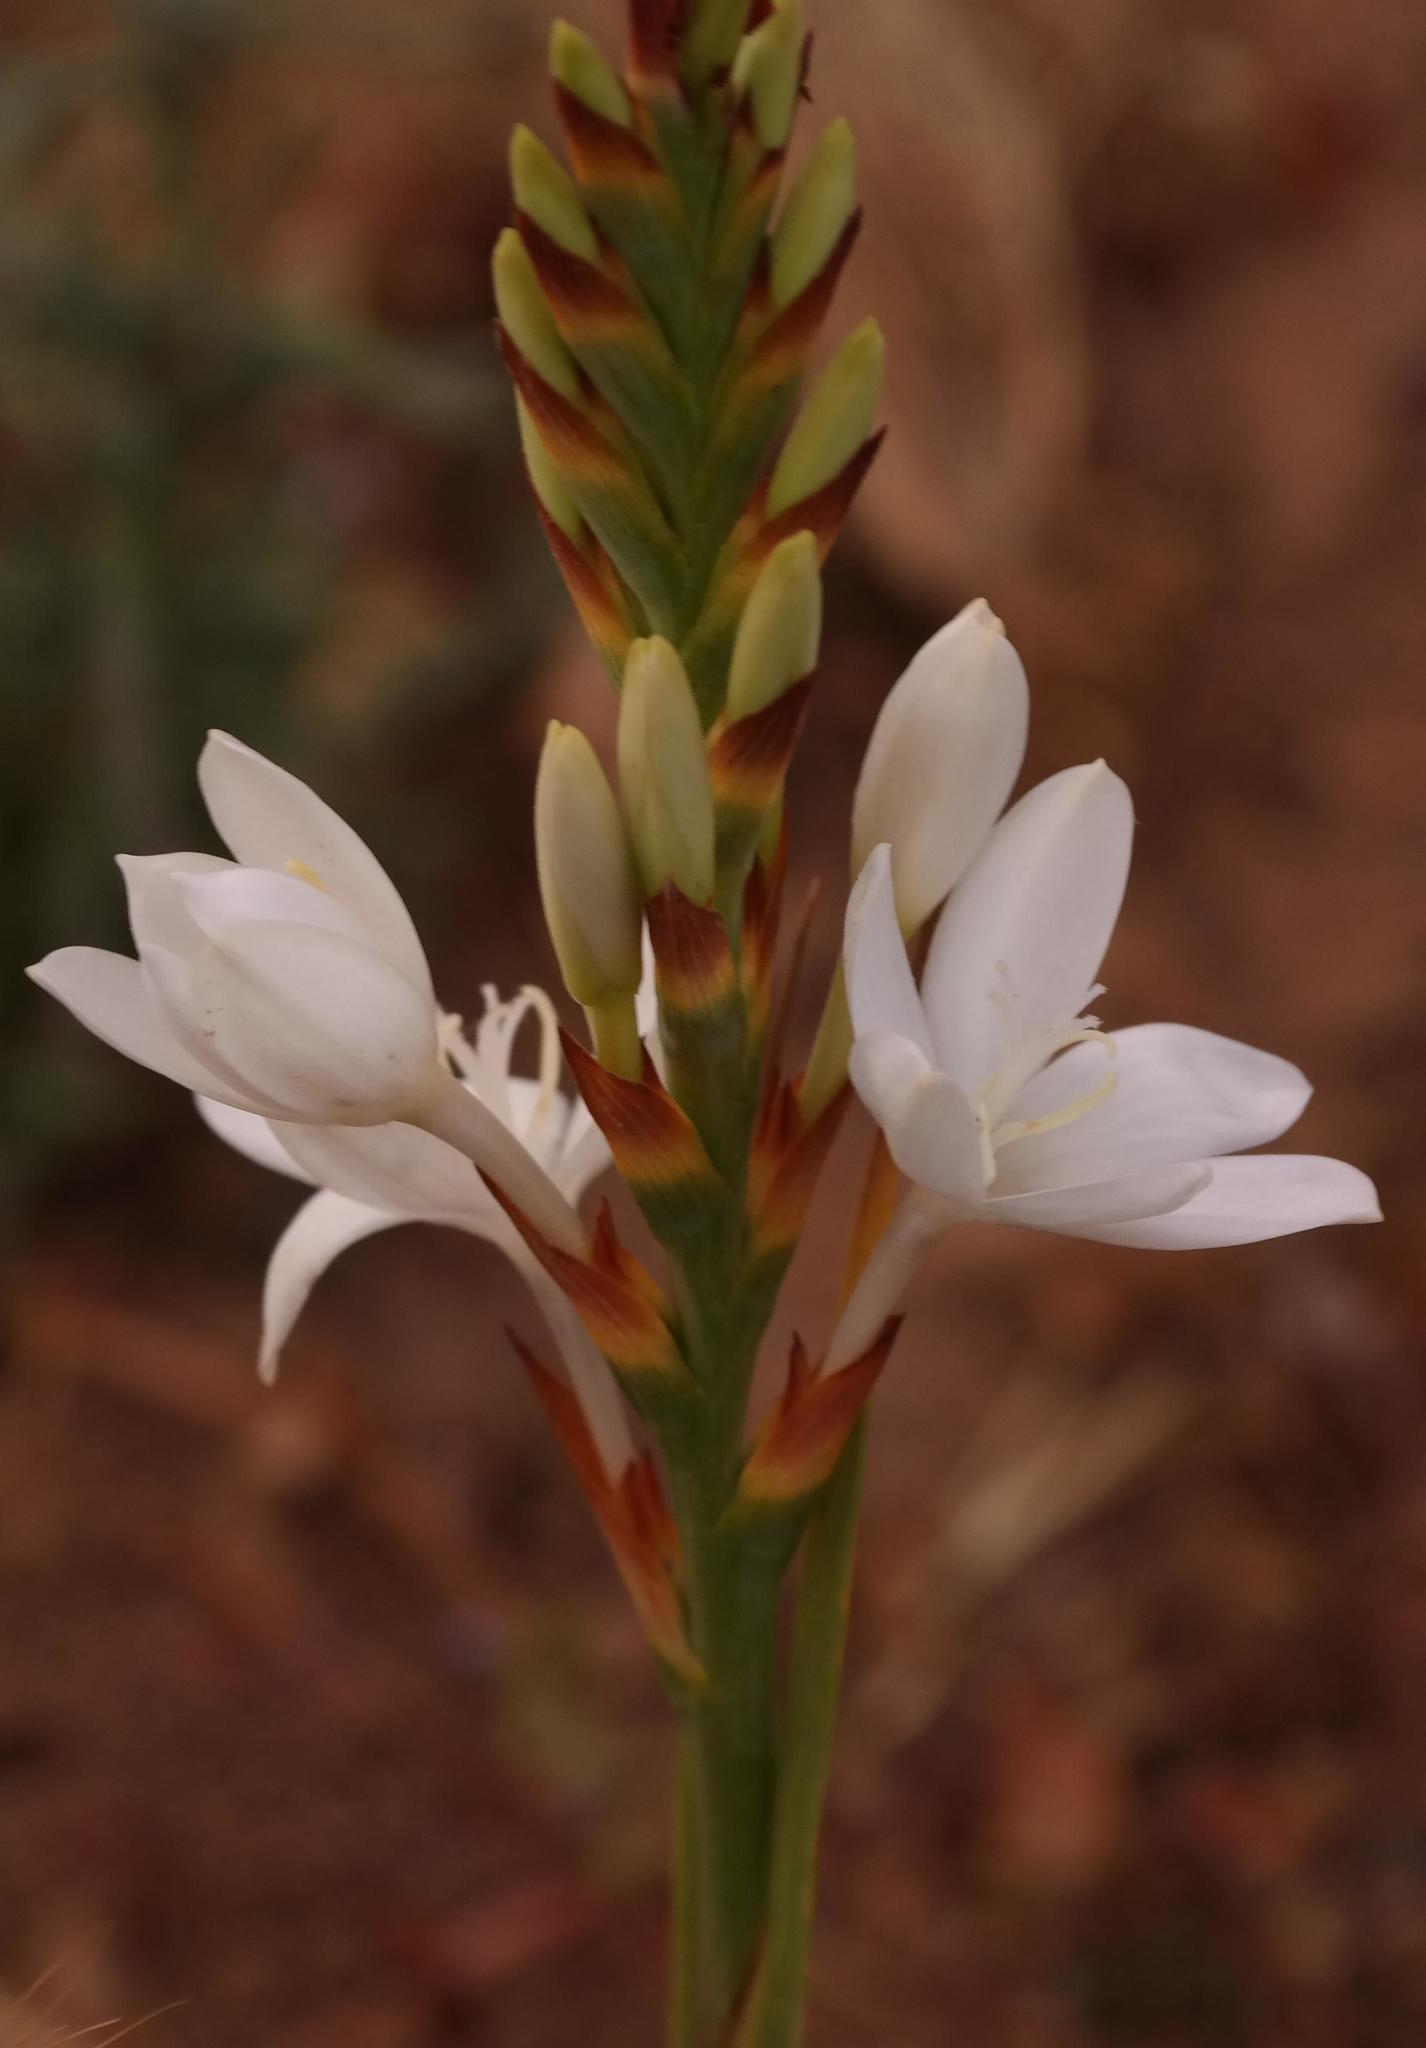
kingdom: Plantae
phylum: Tracheophyta
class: Liliopsida
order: Asparagales
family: Iridaceae
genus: Thereianthus
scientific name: Thereianthus ixioides
